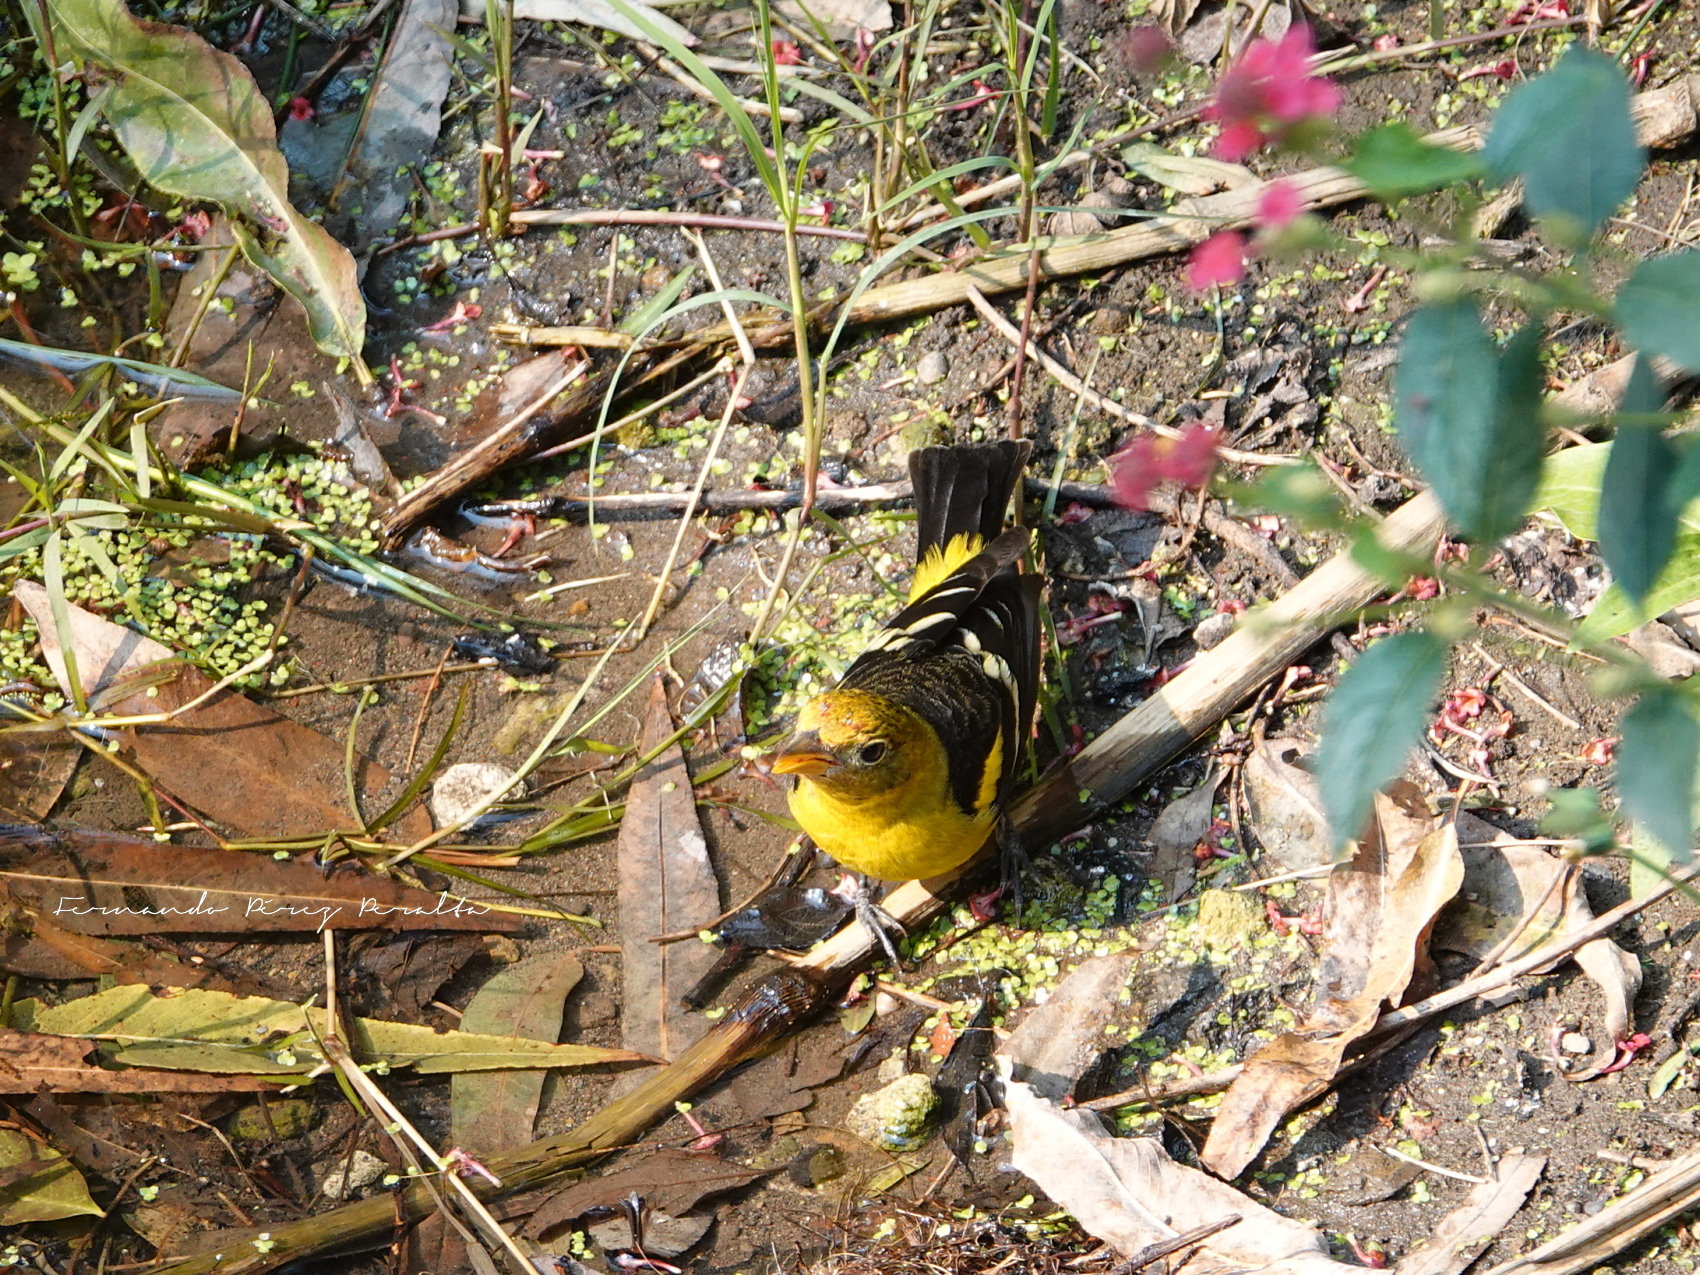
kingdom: Animalia
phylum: Chordata
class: Aves
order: Passeriformes
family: Cardinalidae
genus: Piranga
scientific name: Piranga ludoviciana
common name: Western tanager
